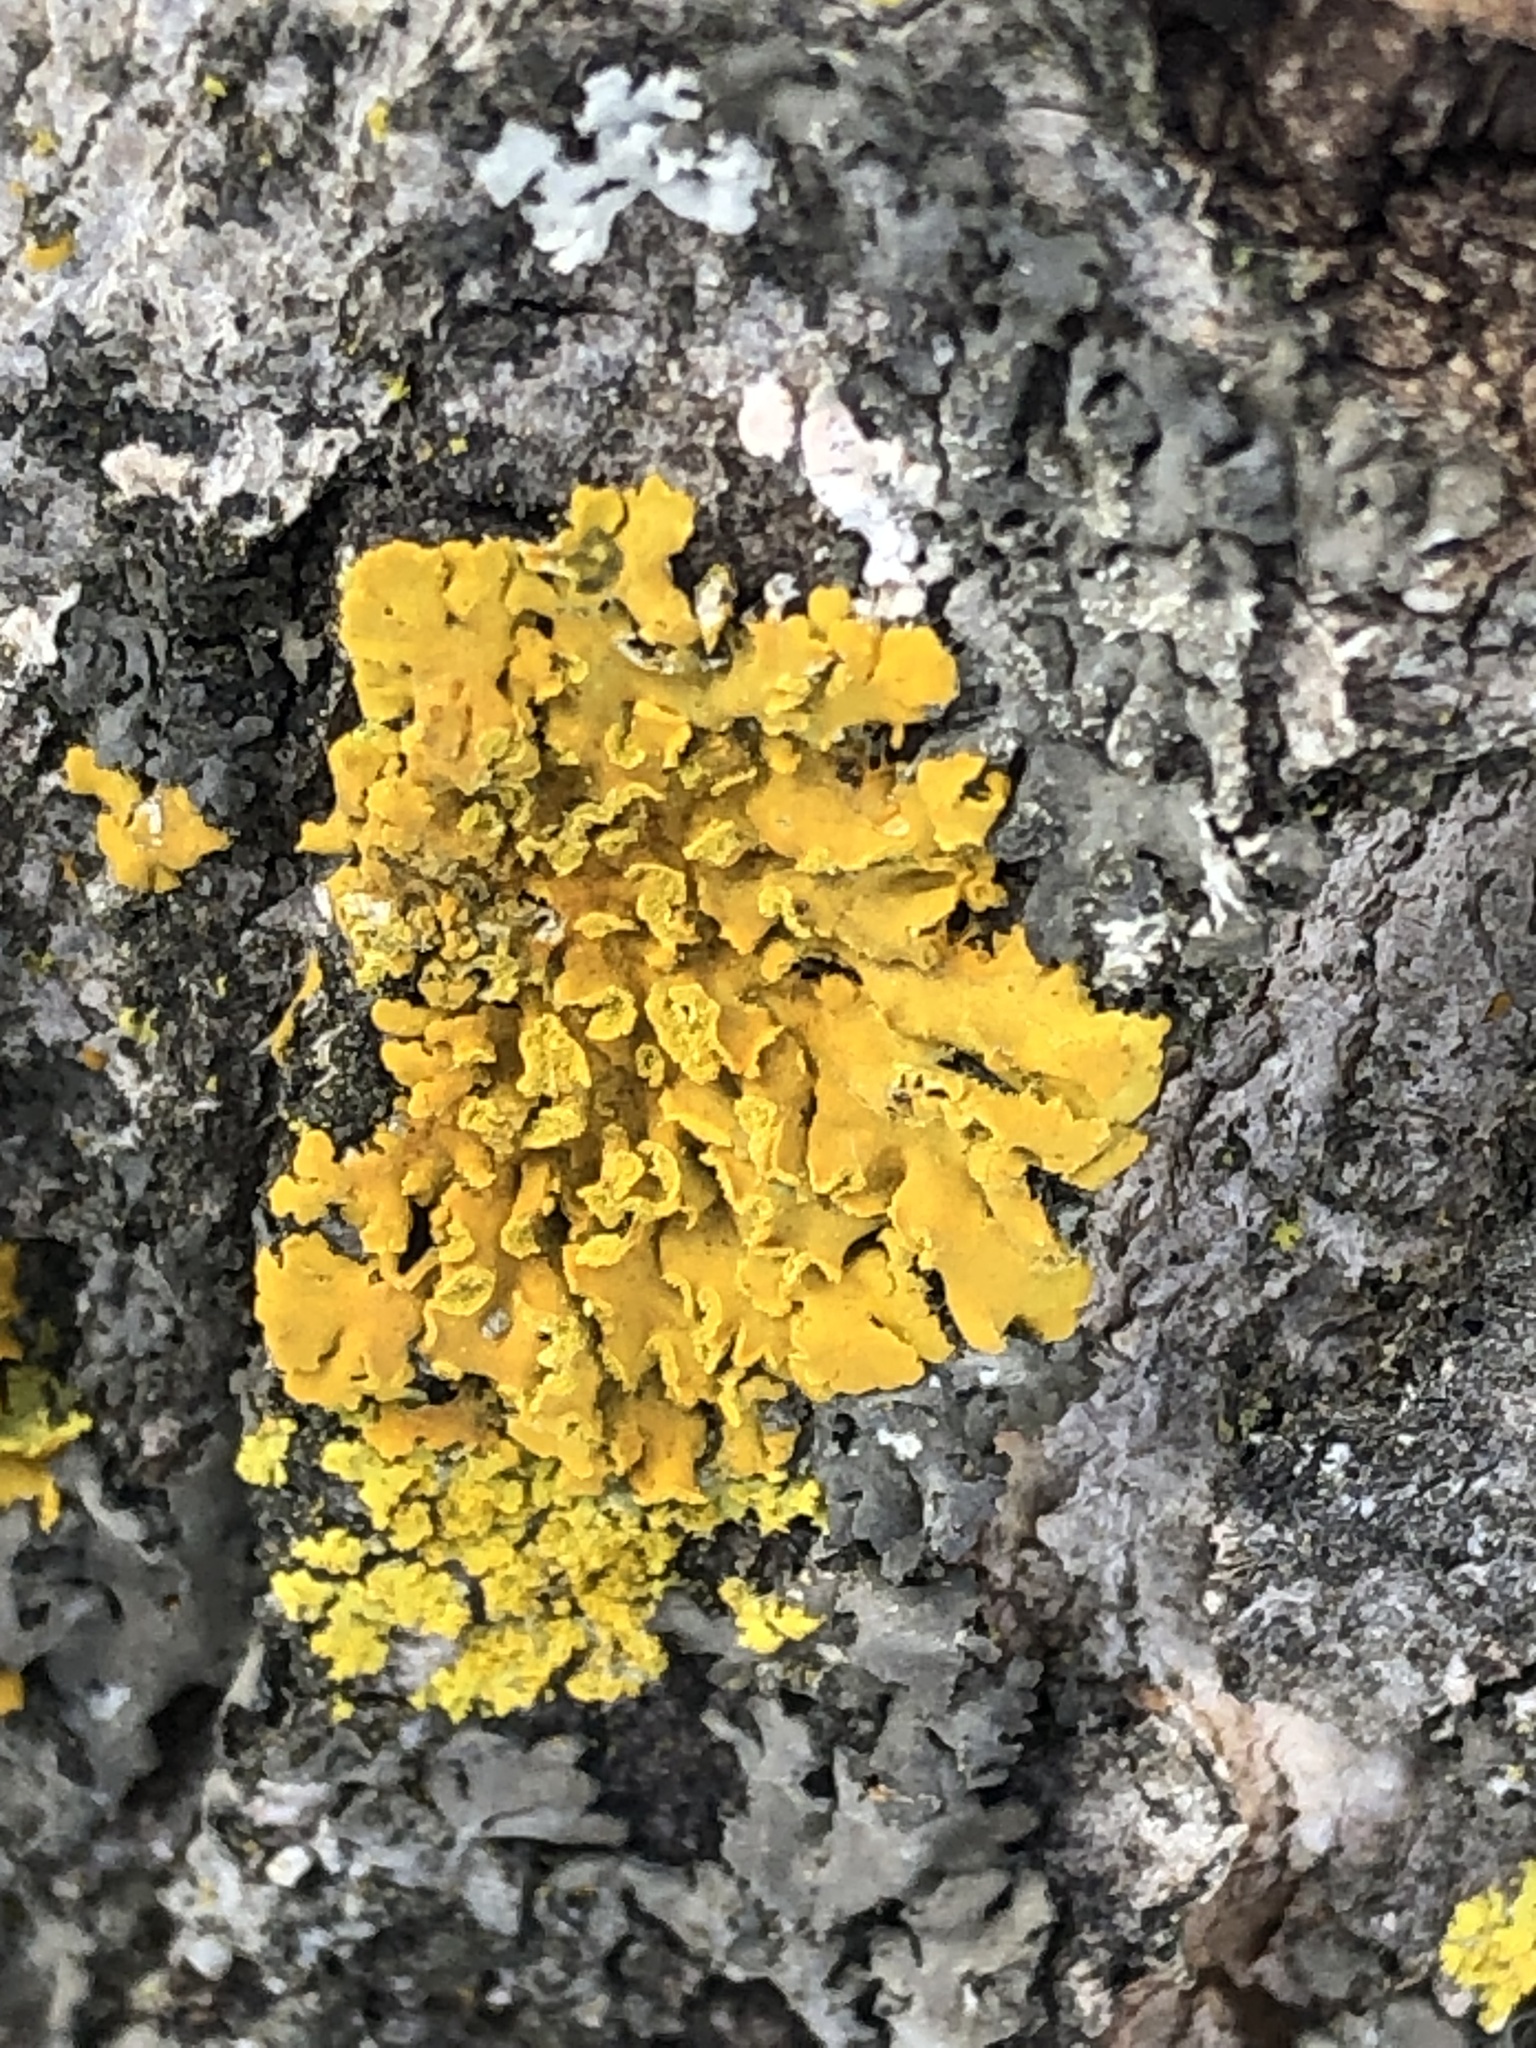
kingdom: Fungi
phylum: Ascomycota
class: Lecanoromycetes
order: Teloschistales
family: Teloschistaceae
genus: Oxneria
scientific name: Oxneria fallax
